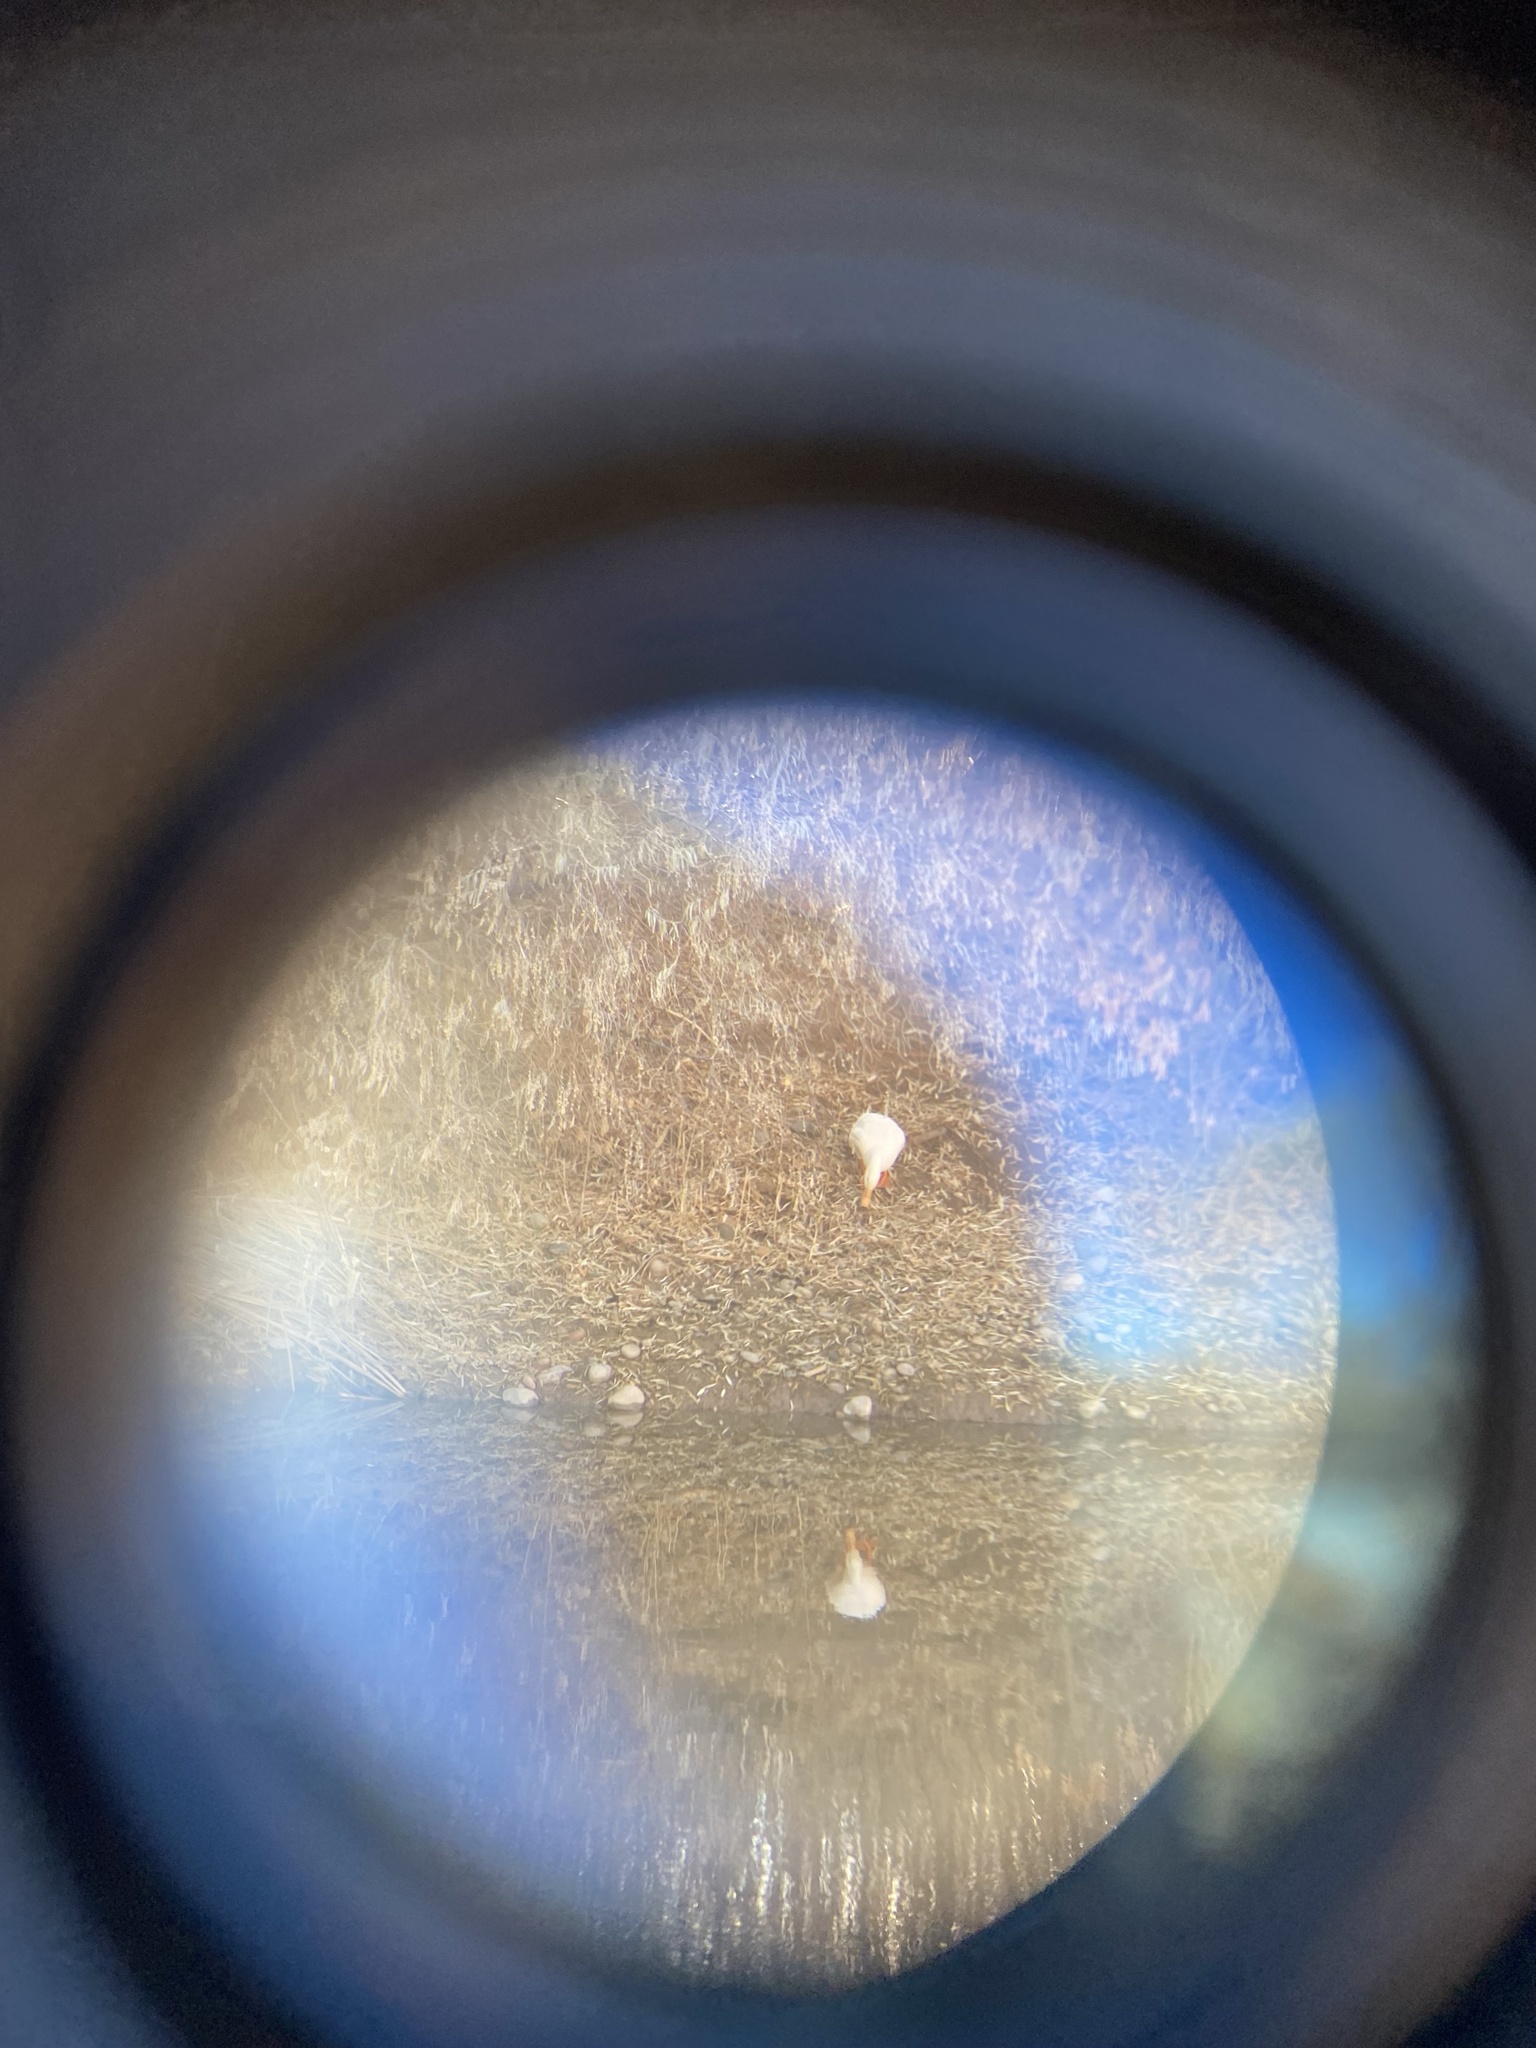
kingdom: Animalia
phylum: Chordata
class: Aves
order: Anseriformes
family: Anatidae
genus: Anas
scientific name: Anas platyrhynchos
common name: Mallard
